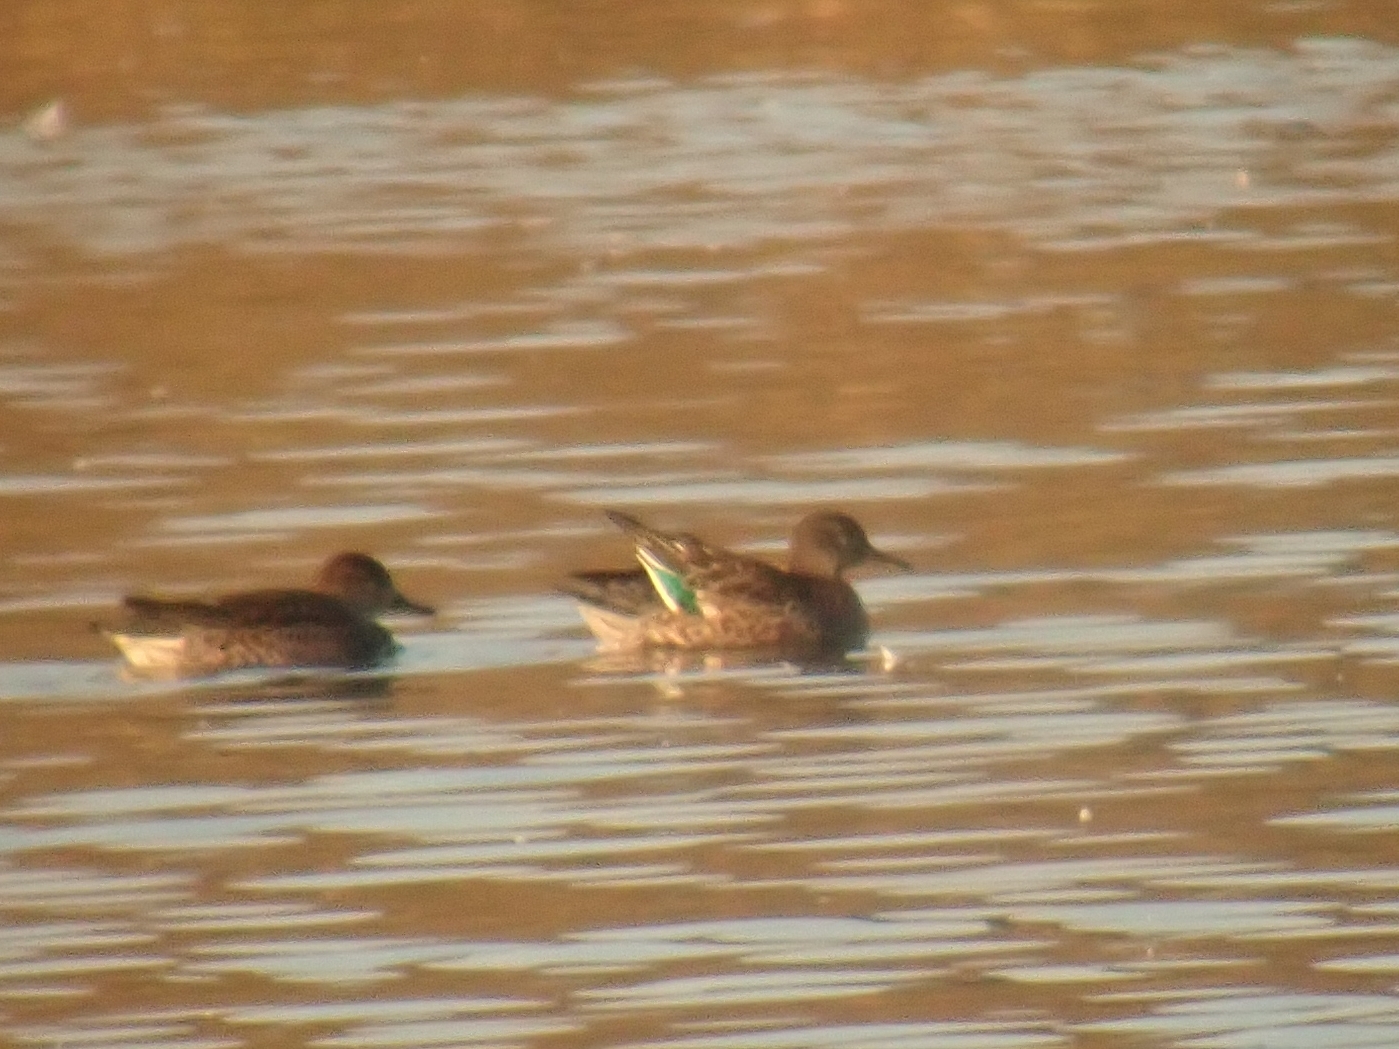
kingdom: Animalia
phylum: Chordata
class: Aves
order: Anseriformes
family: Anatidae
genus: Anas
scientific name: Anas crecca
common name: Eurasian teal
